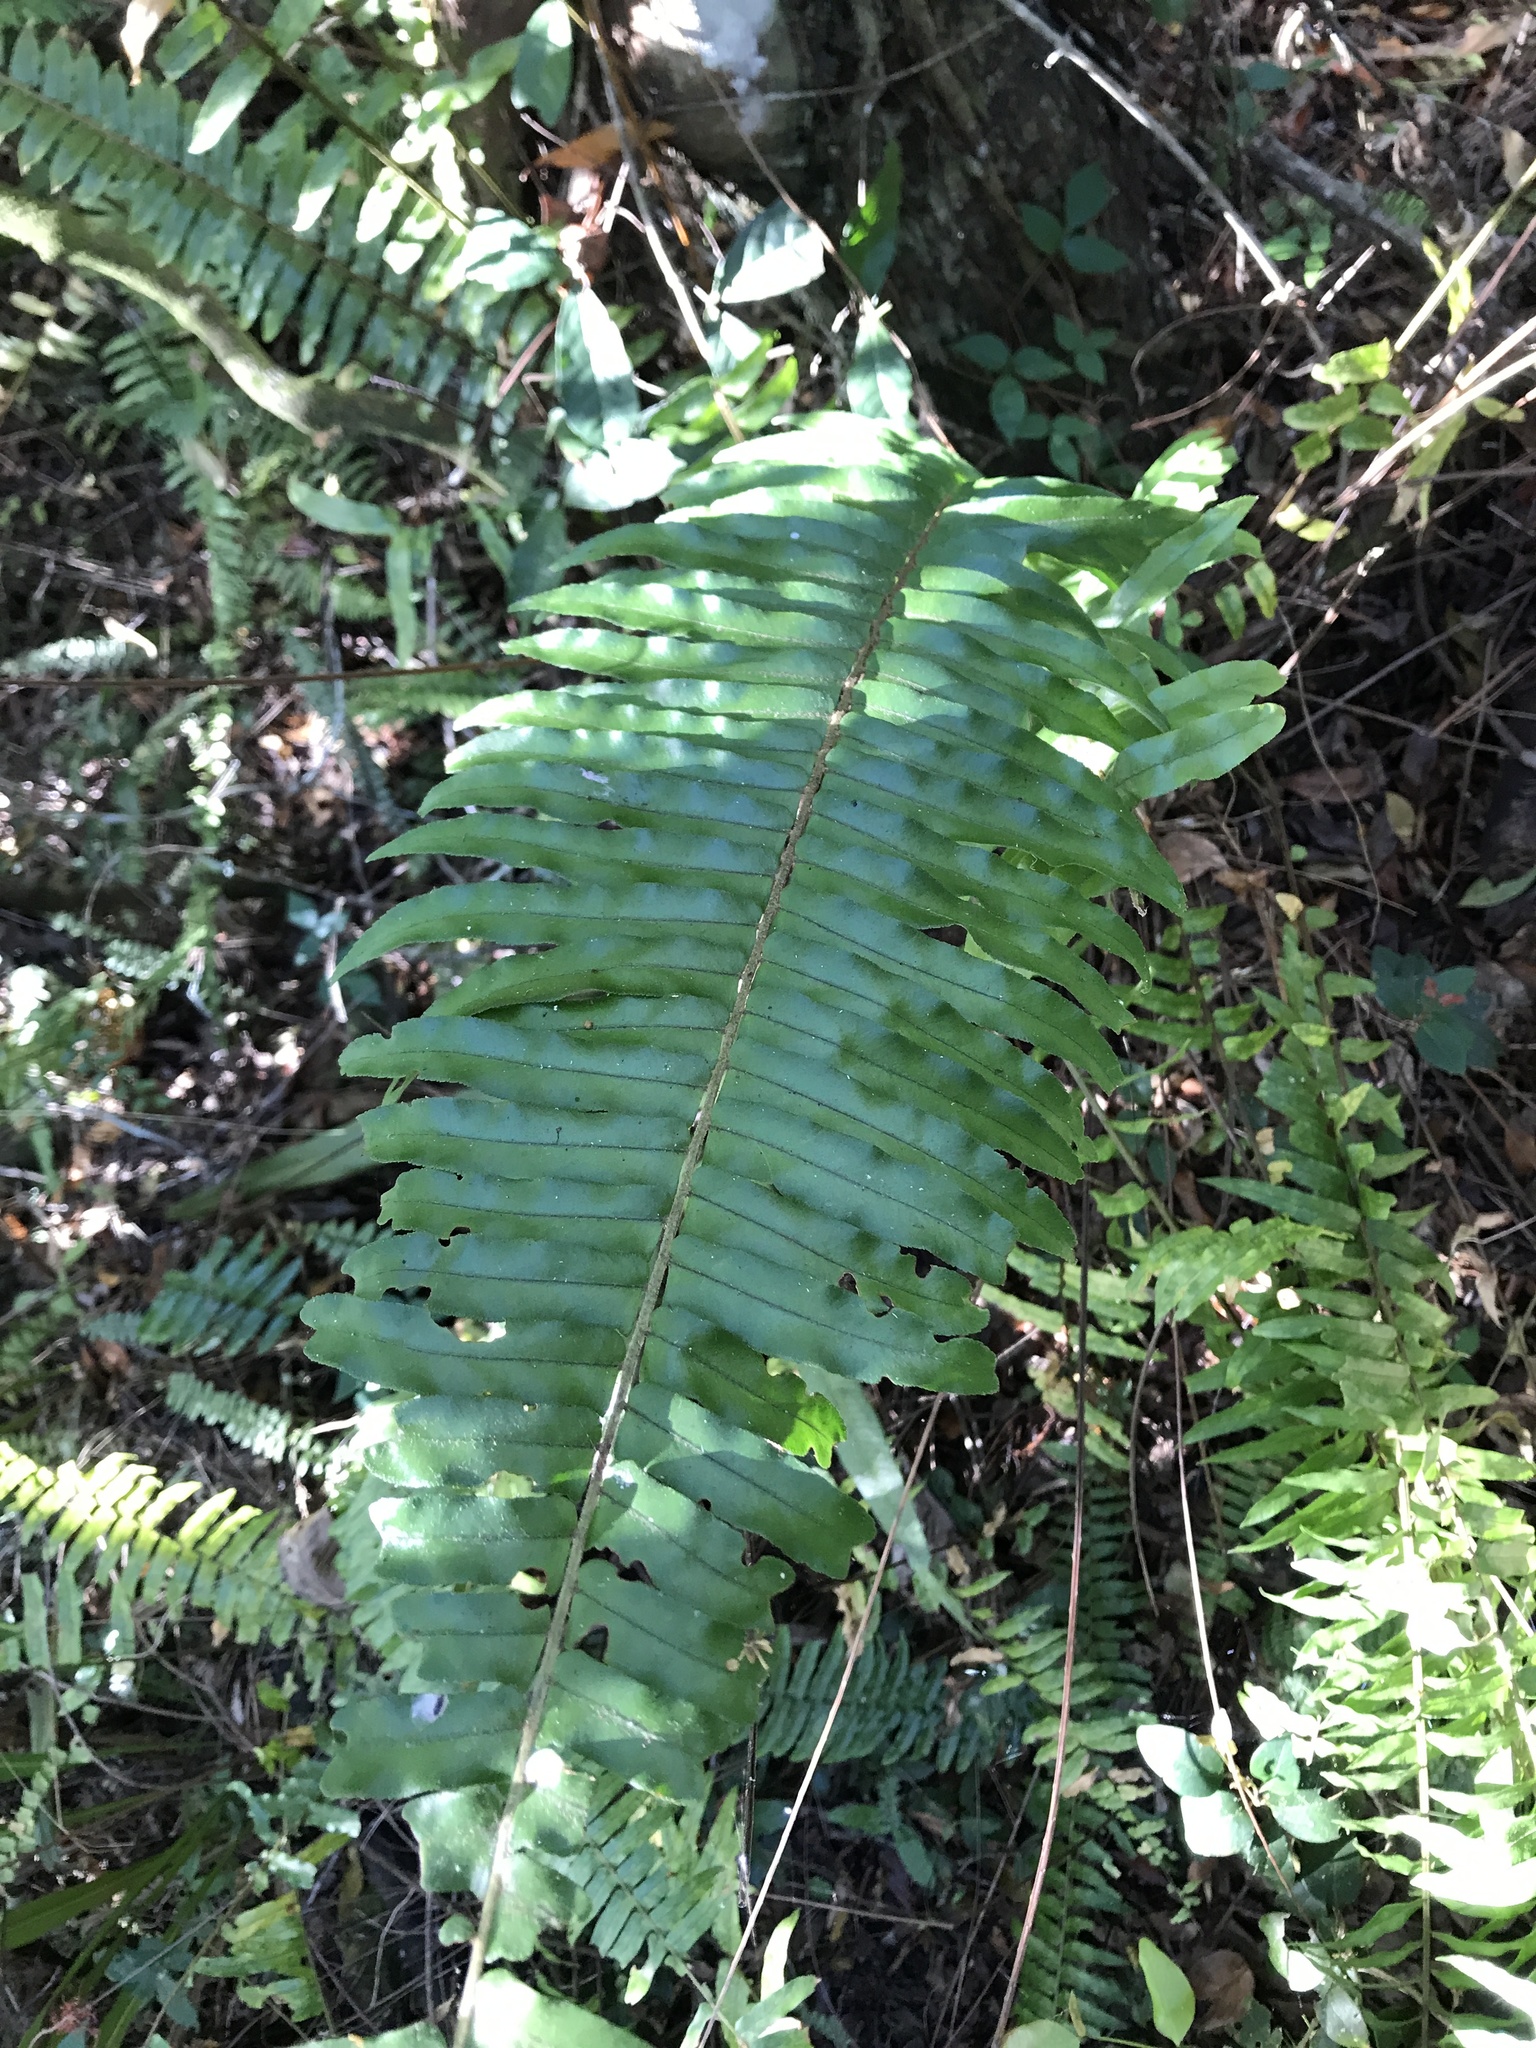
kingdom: Plantae
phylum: Tracheophyta
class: Polypodiopsida
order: Polypodiales
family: Blechnaceae
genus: Telmatoblechnum
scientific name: Telmatoblechnum serrulatum
